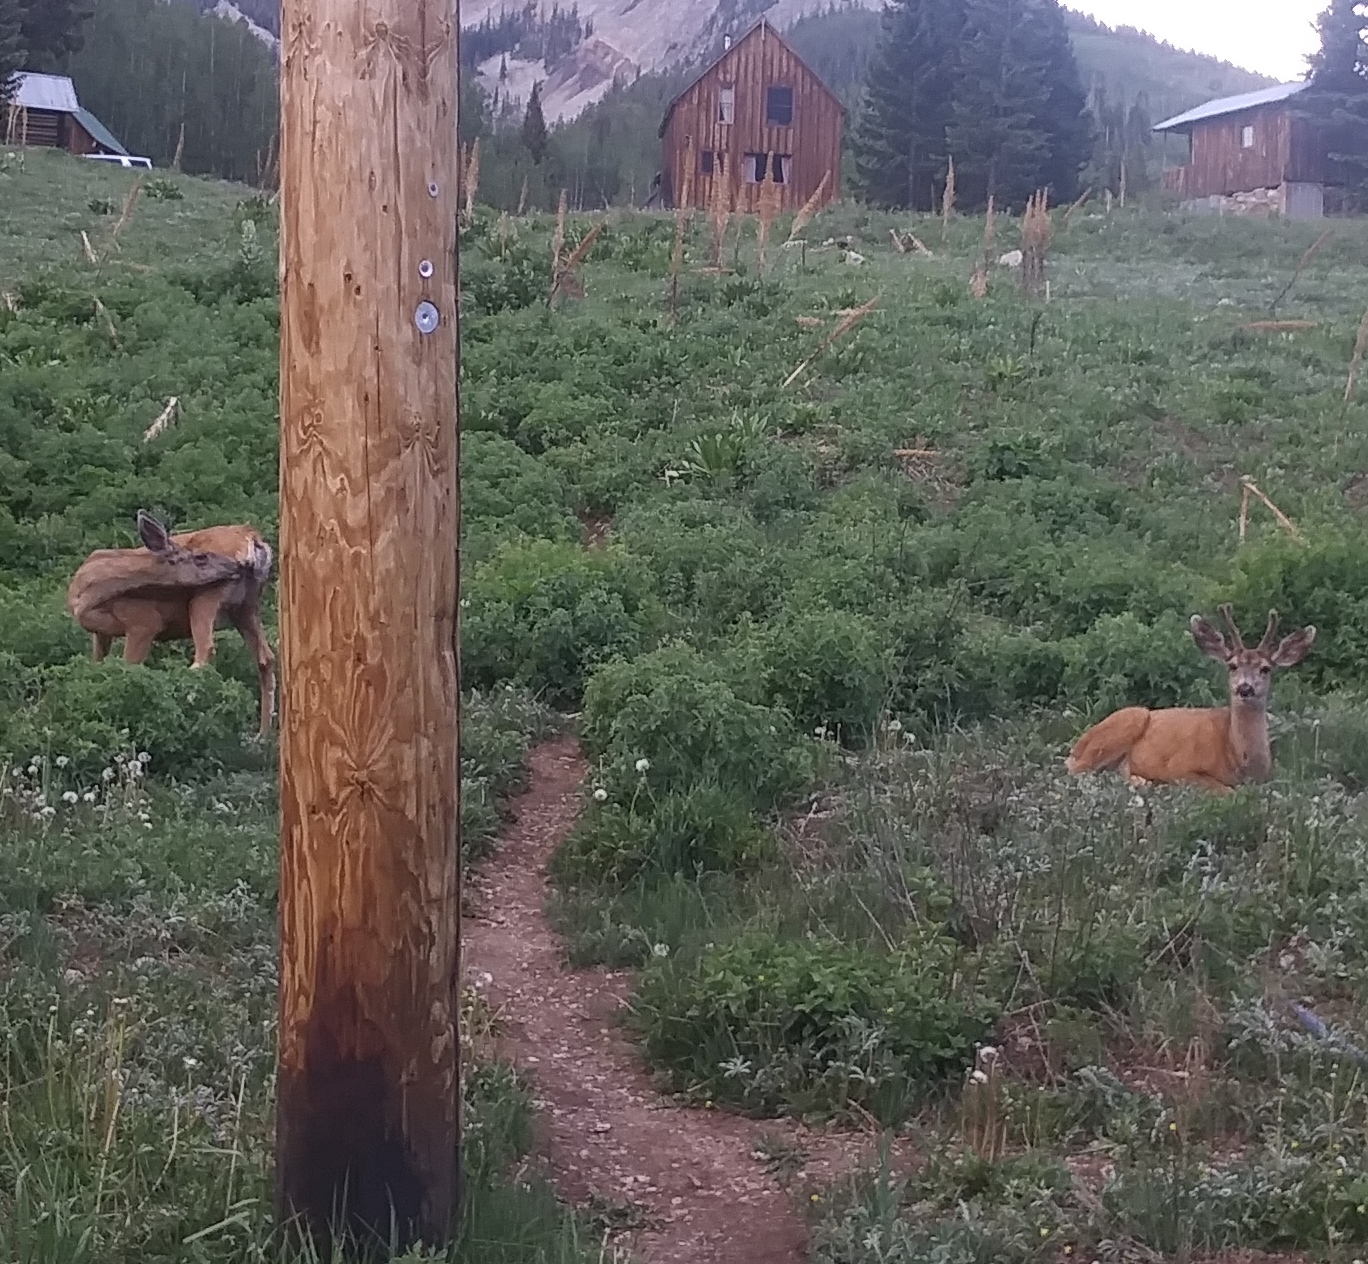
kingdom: Animalia
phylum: Chordata
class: Mammalia
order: Artiodactyla
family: Cervidae
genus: Odocoileus
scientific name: Odocoileus hemionus
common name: Mule deer
